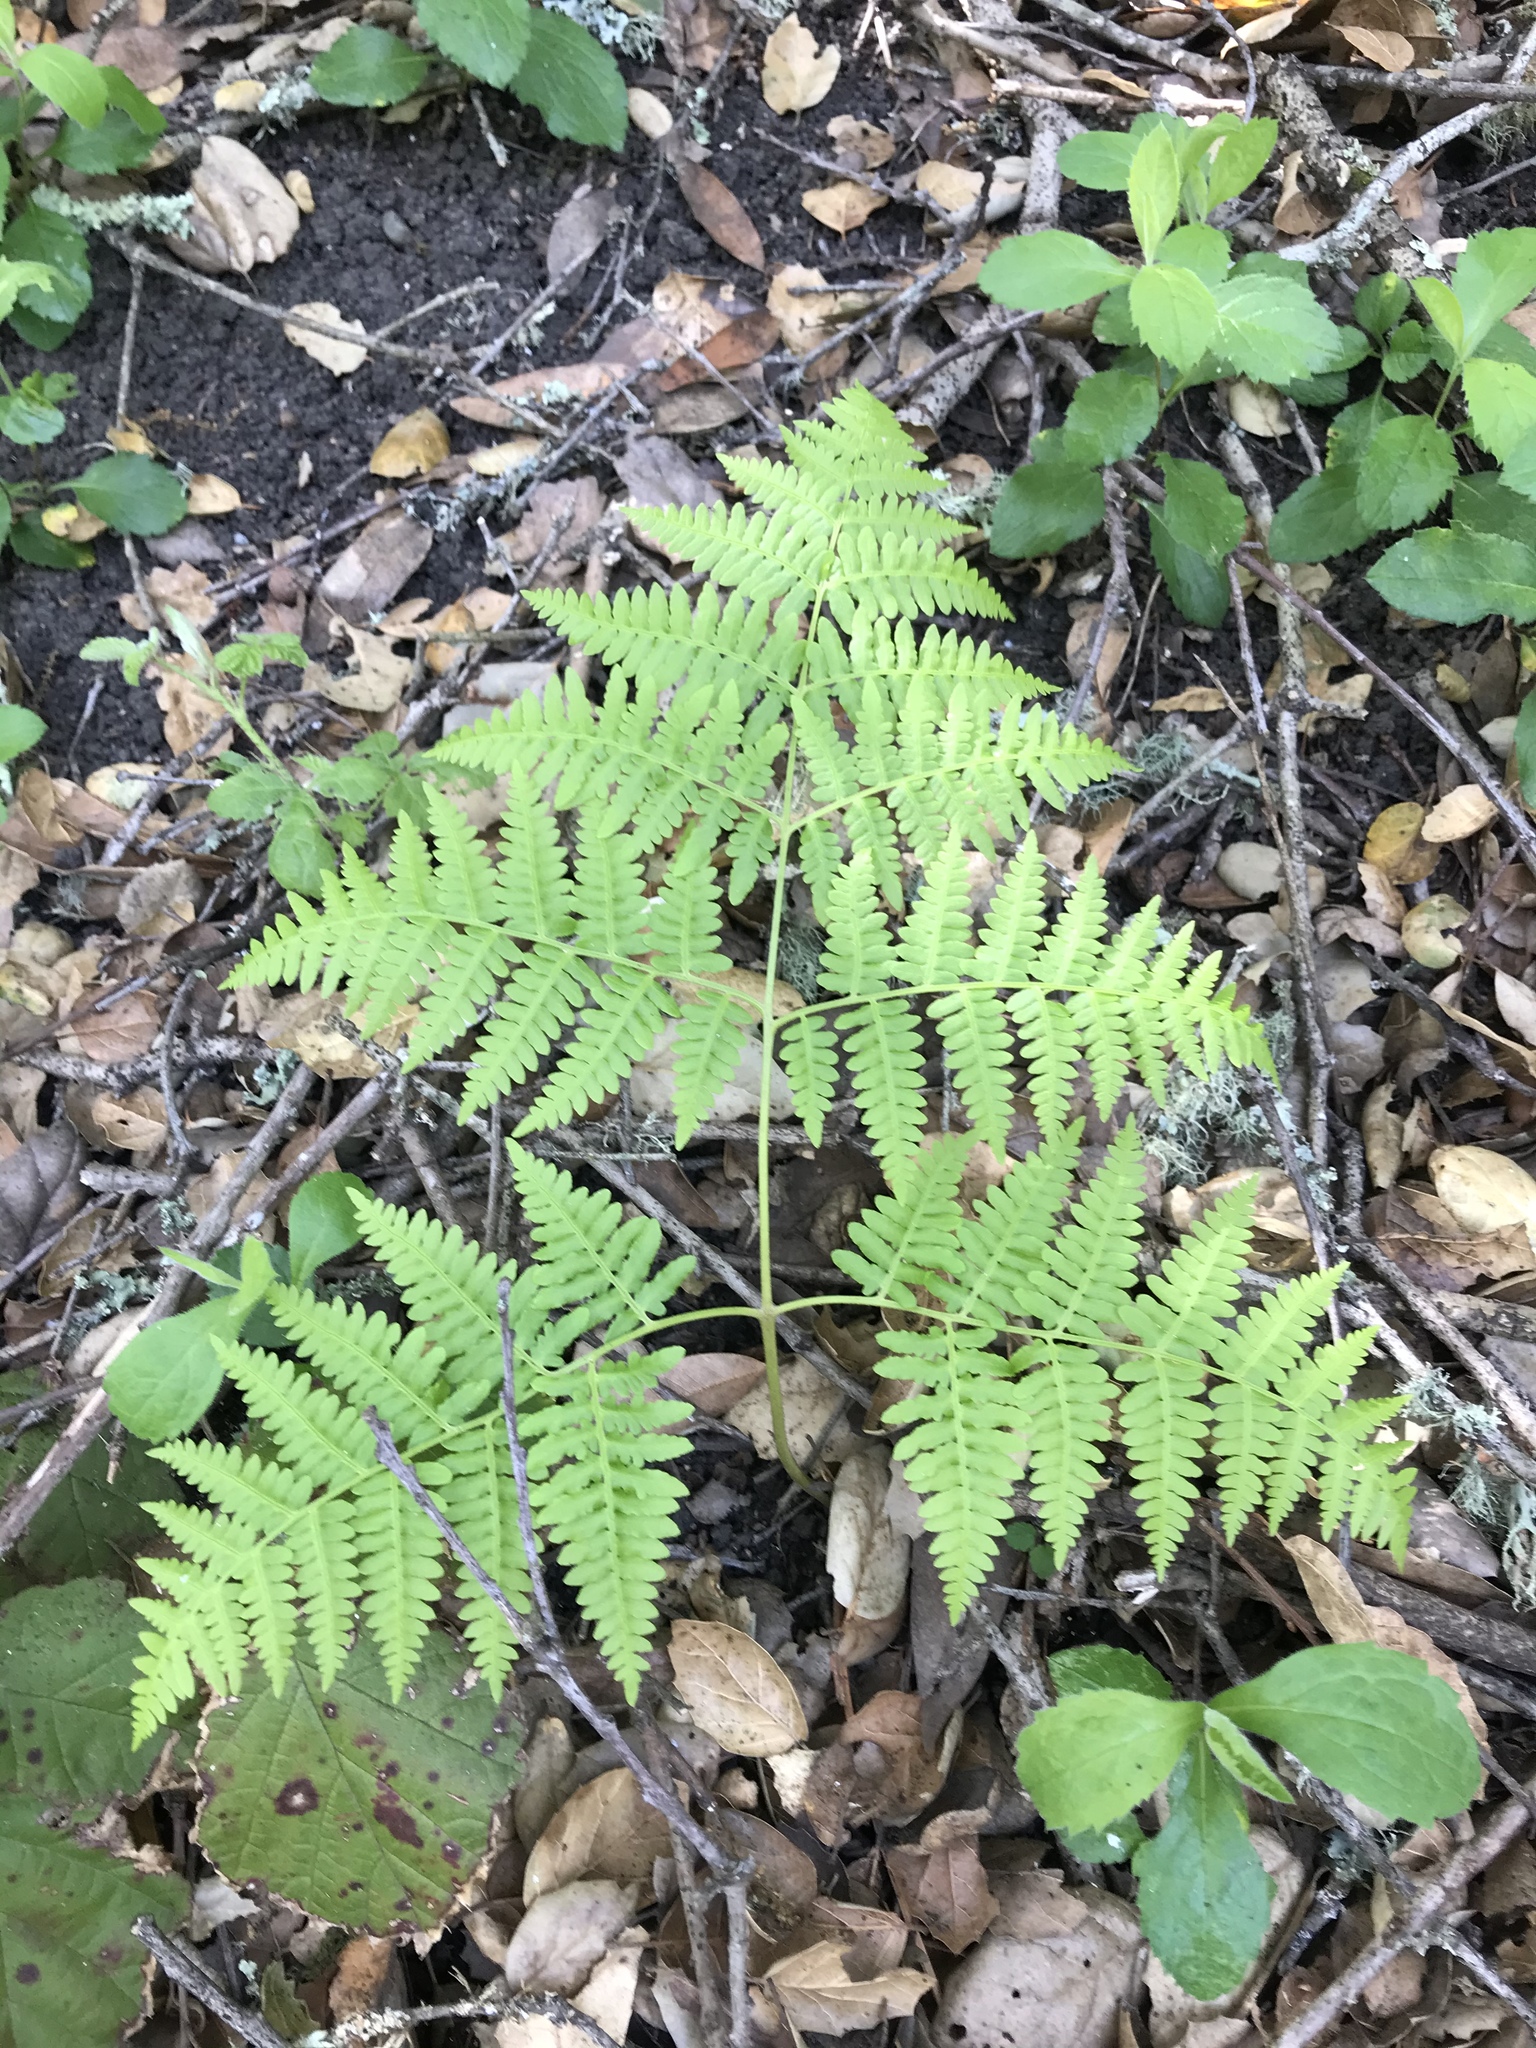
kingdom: Plantae
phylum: Tracheophyta
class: Polypodiopsida
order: Polypodiales
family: Dennstaedtiaceae
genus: Pteridium
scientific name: Pteridium aquilinum
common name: Bracken
